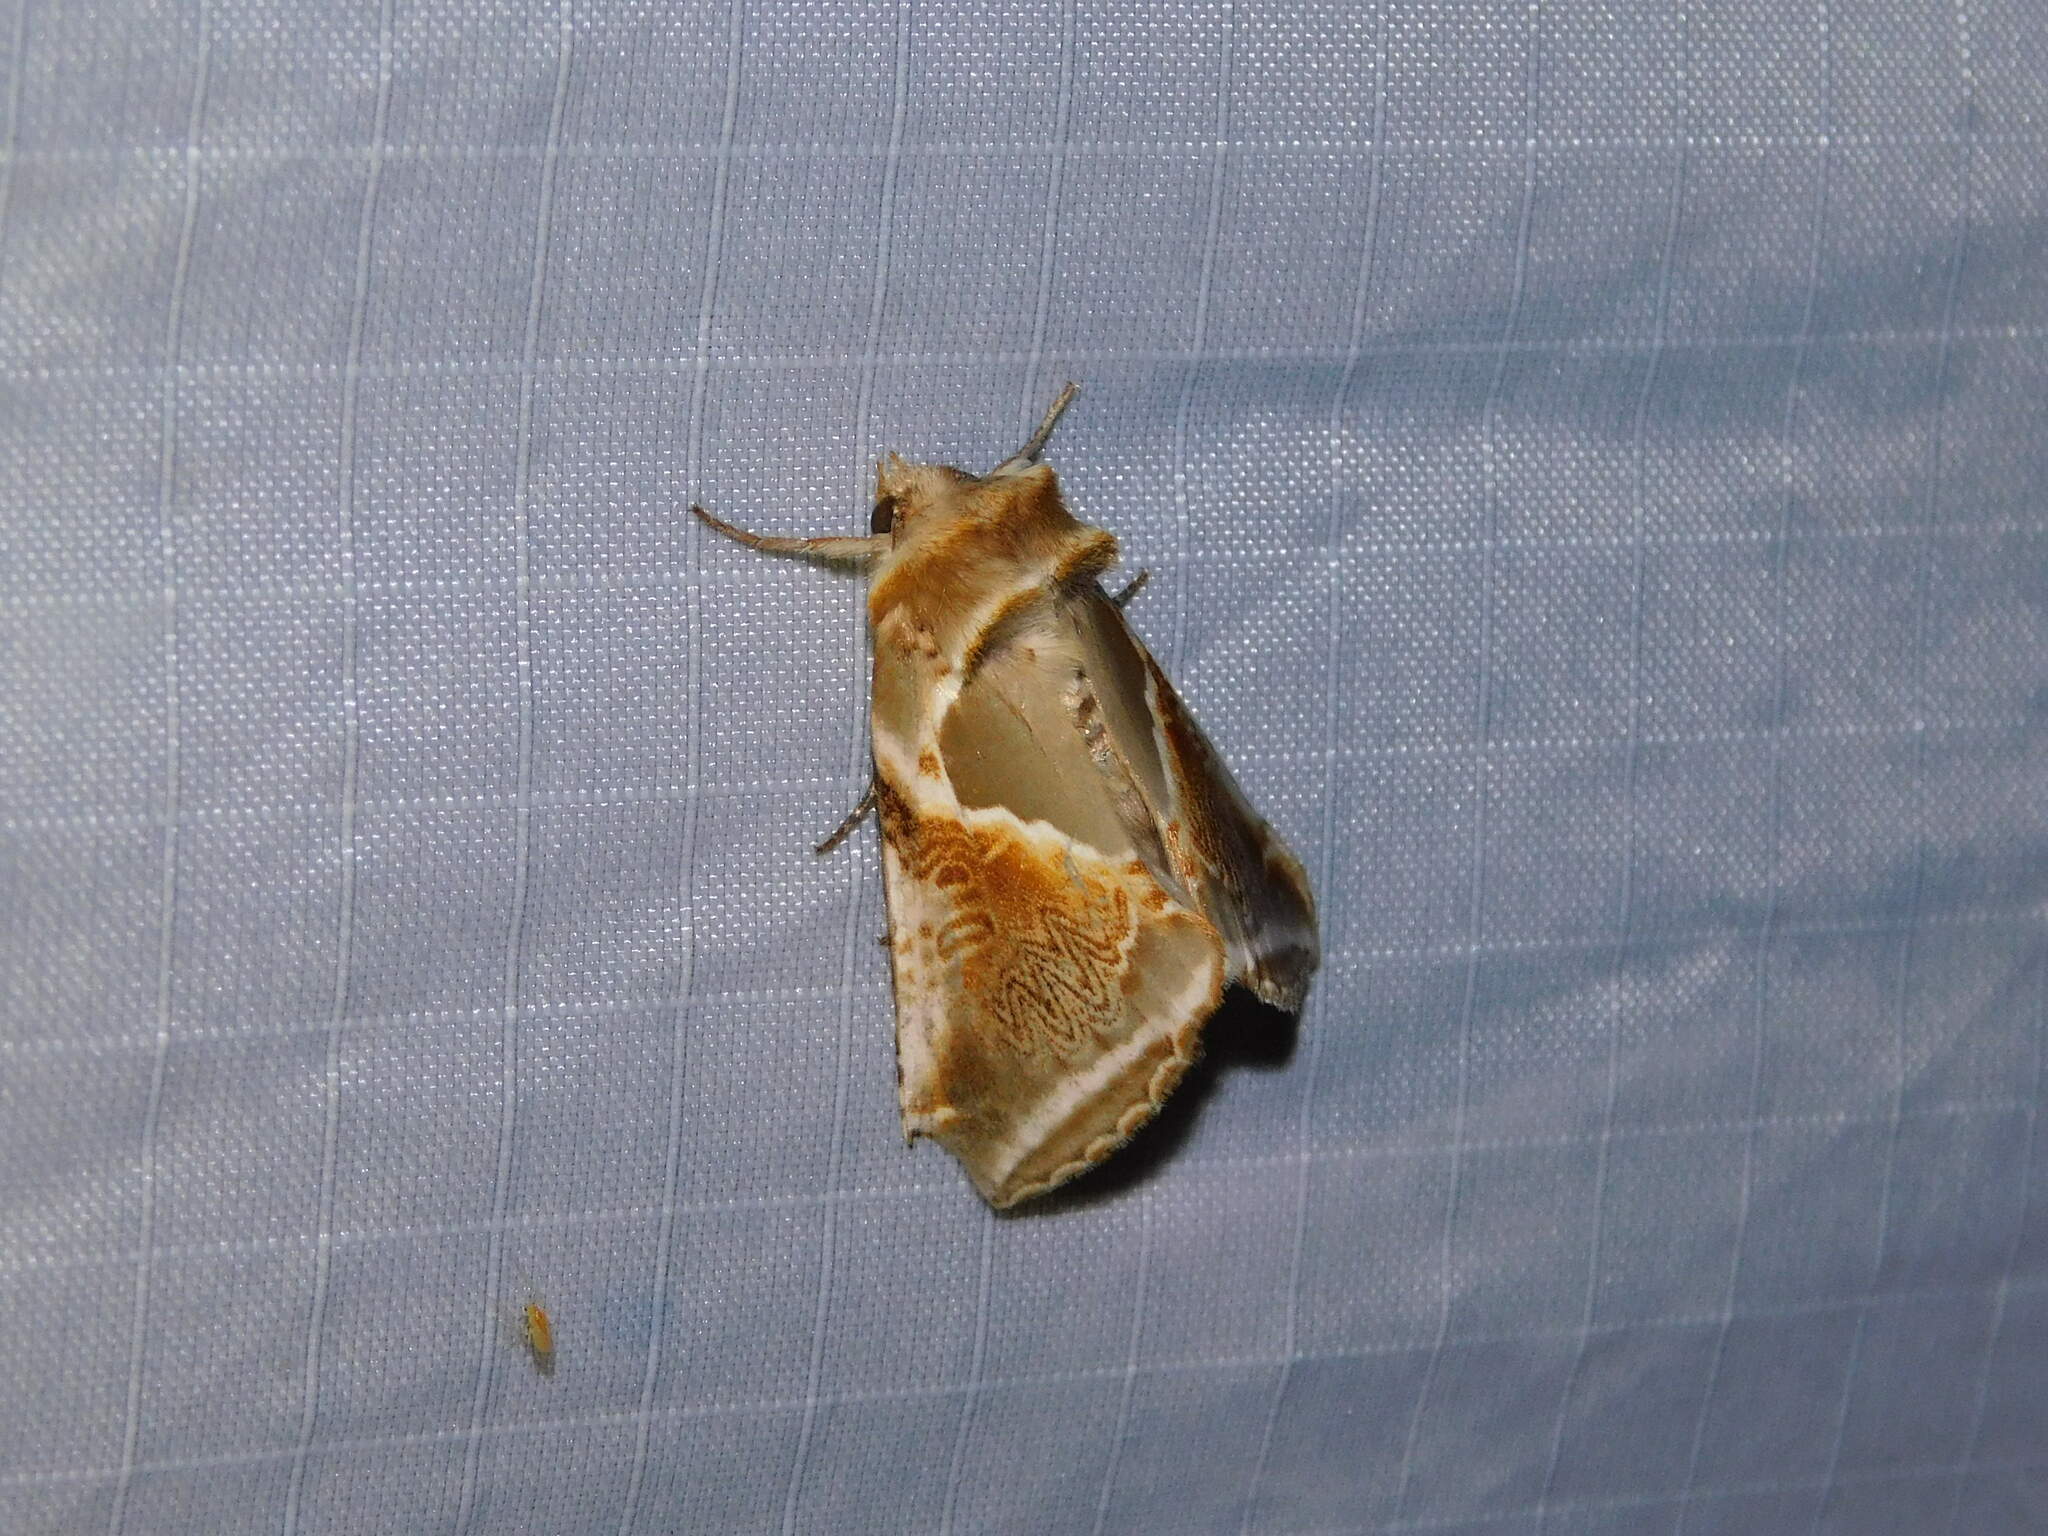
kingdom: Animalia
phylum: Arthropoda
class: Insecta
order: Lepidoptera
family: Drepanidae
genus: Habrosyne
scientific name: Habrosyne pyritoides
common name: Buff arches
